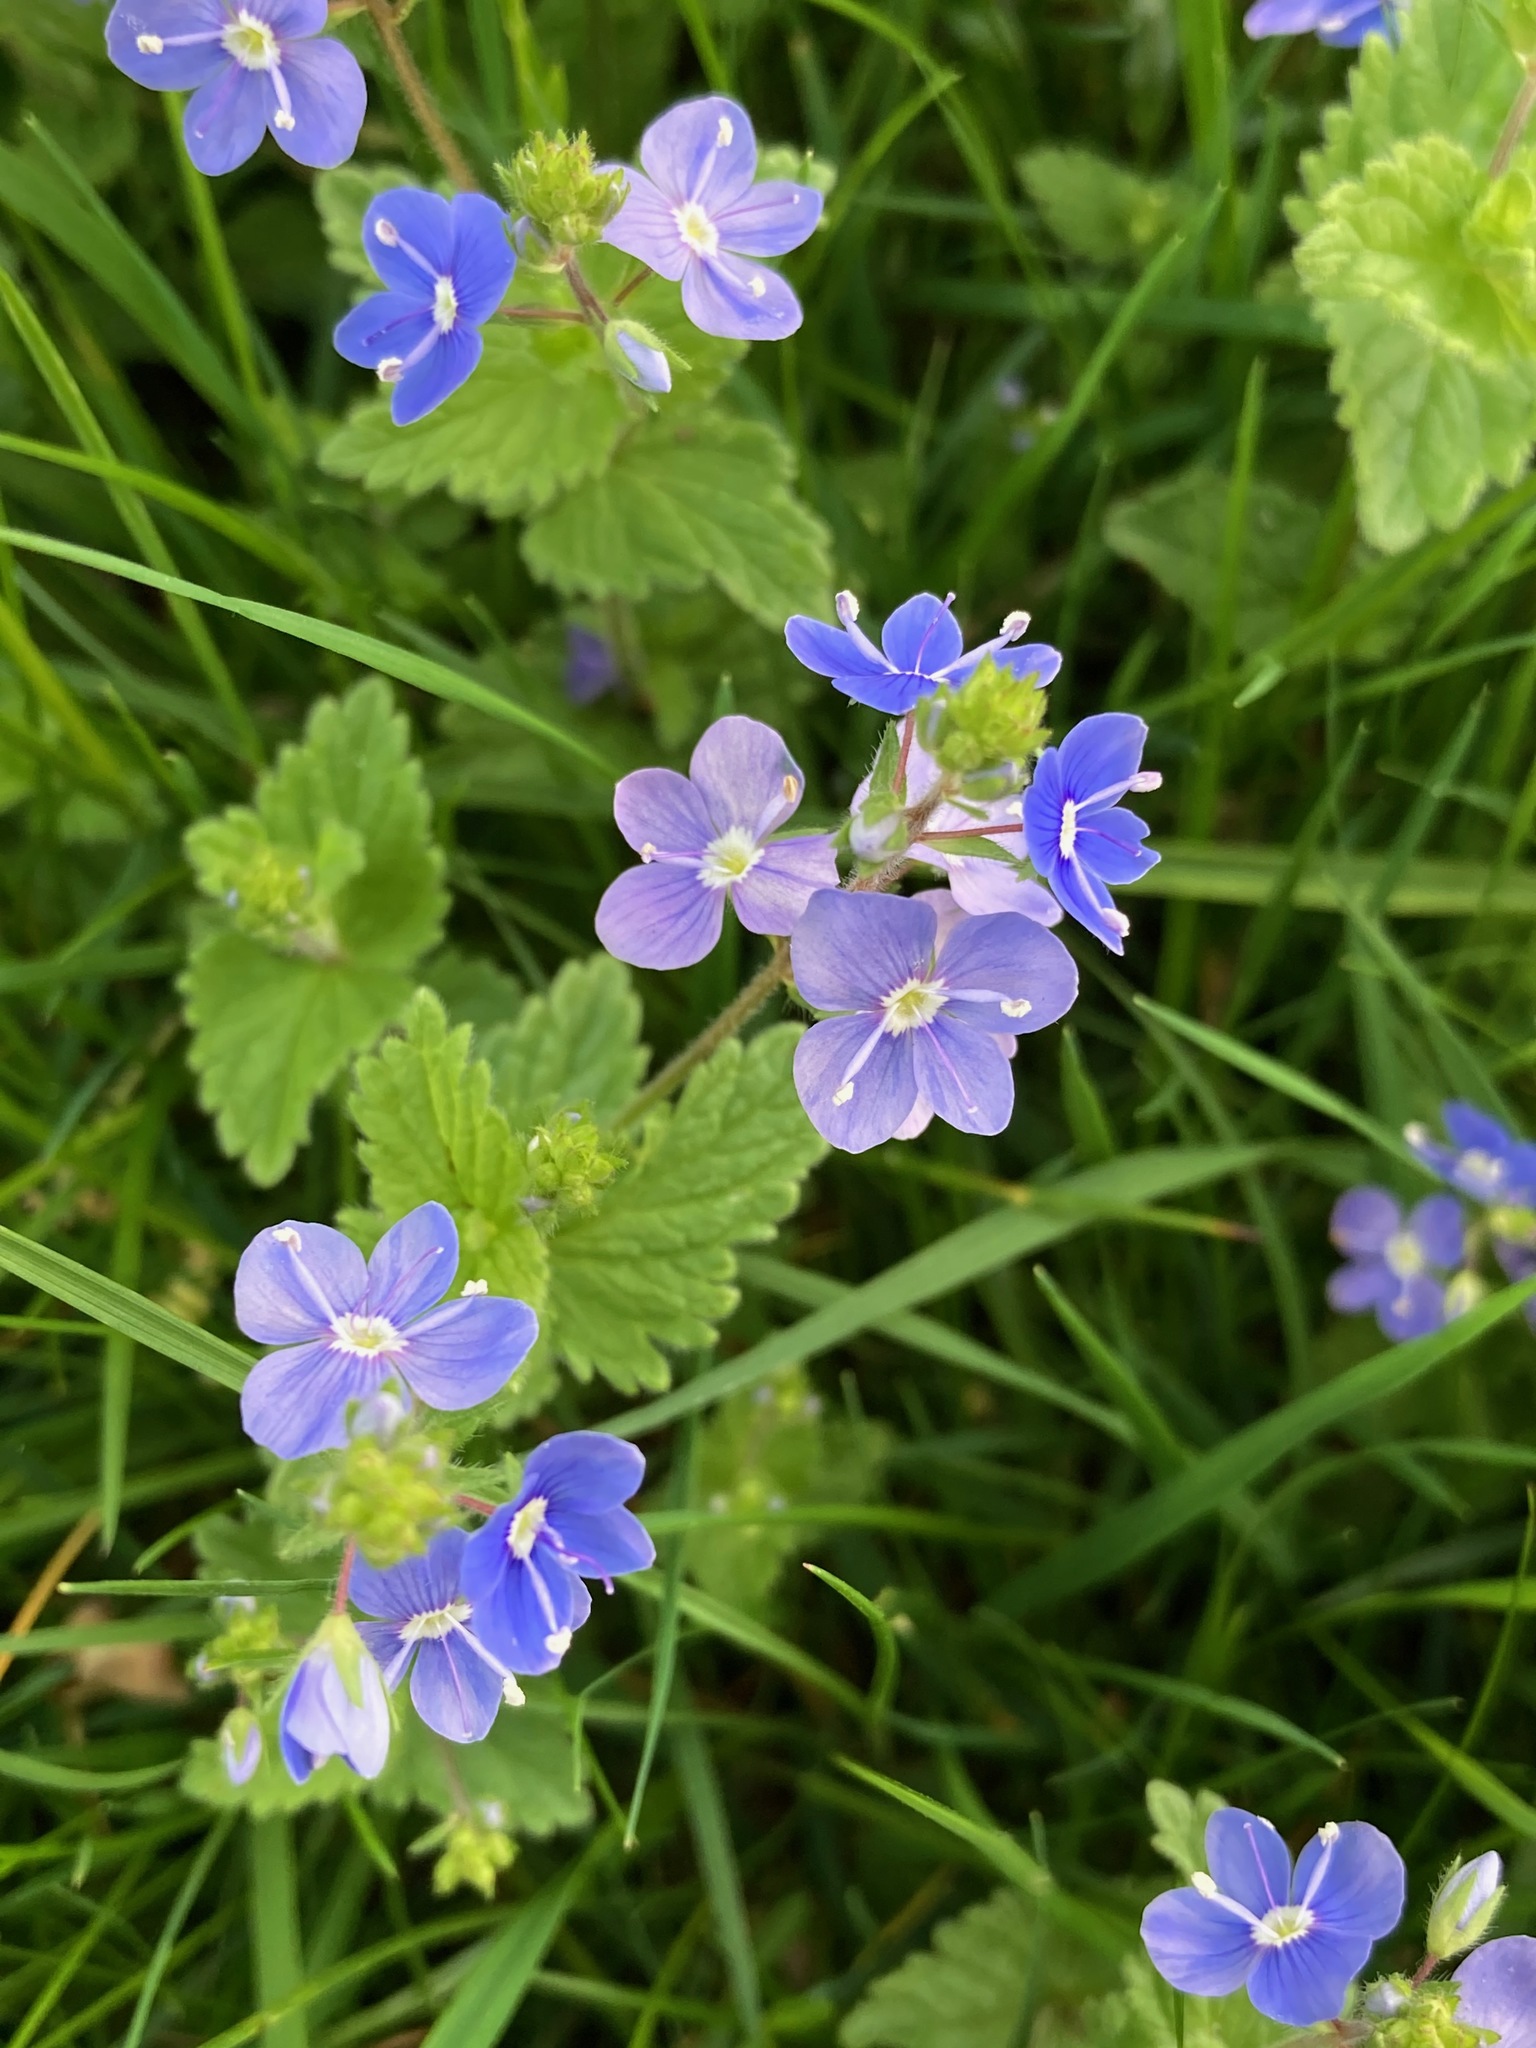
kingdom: Plantae
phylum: Tracheophyta
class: Magnoliopsida
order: Lamiales
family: Plantaginaceae
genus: Veronica
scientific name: Veronica chamaedrys
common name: Germander speedwell
